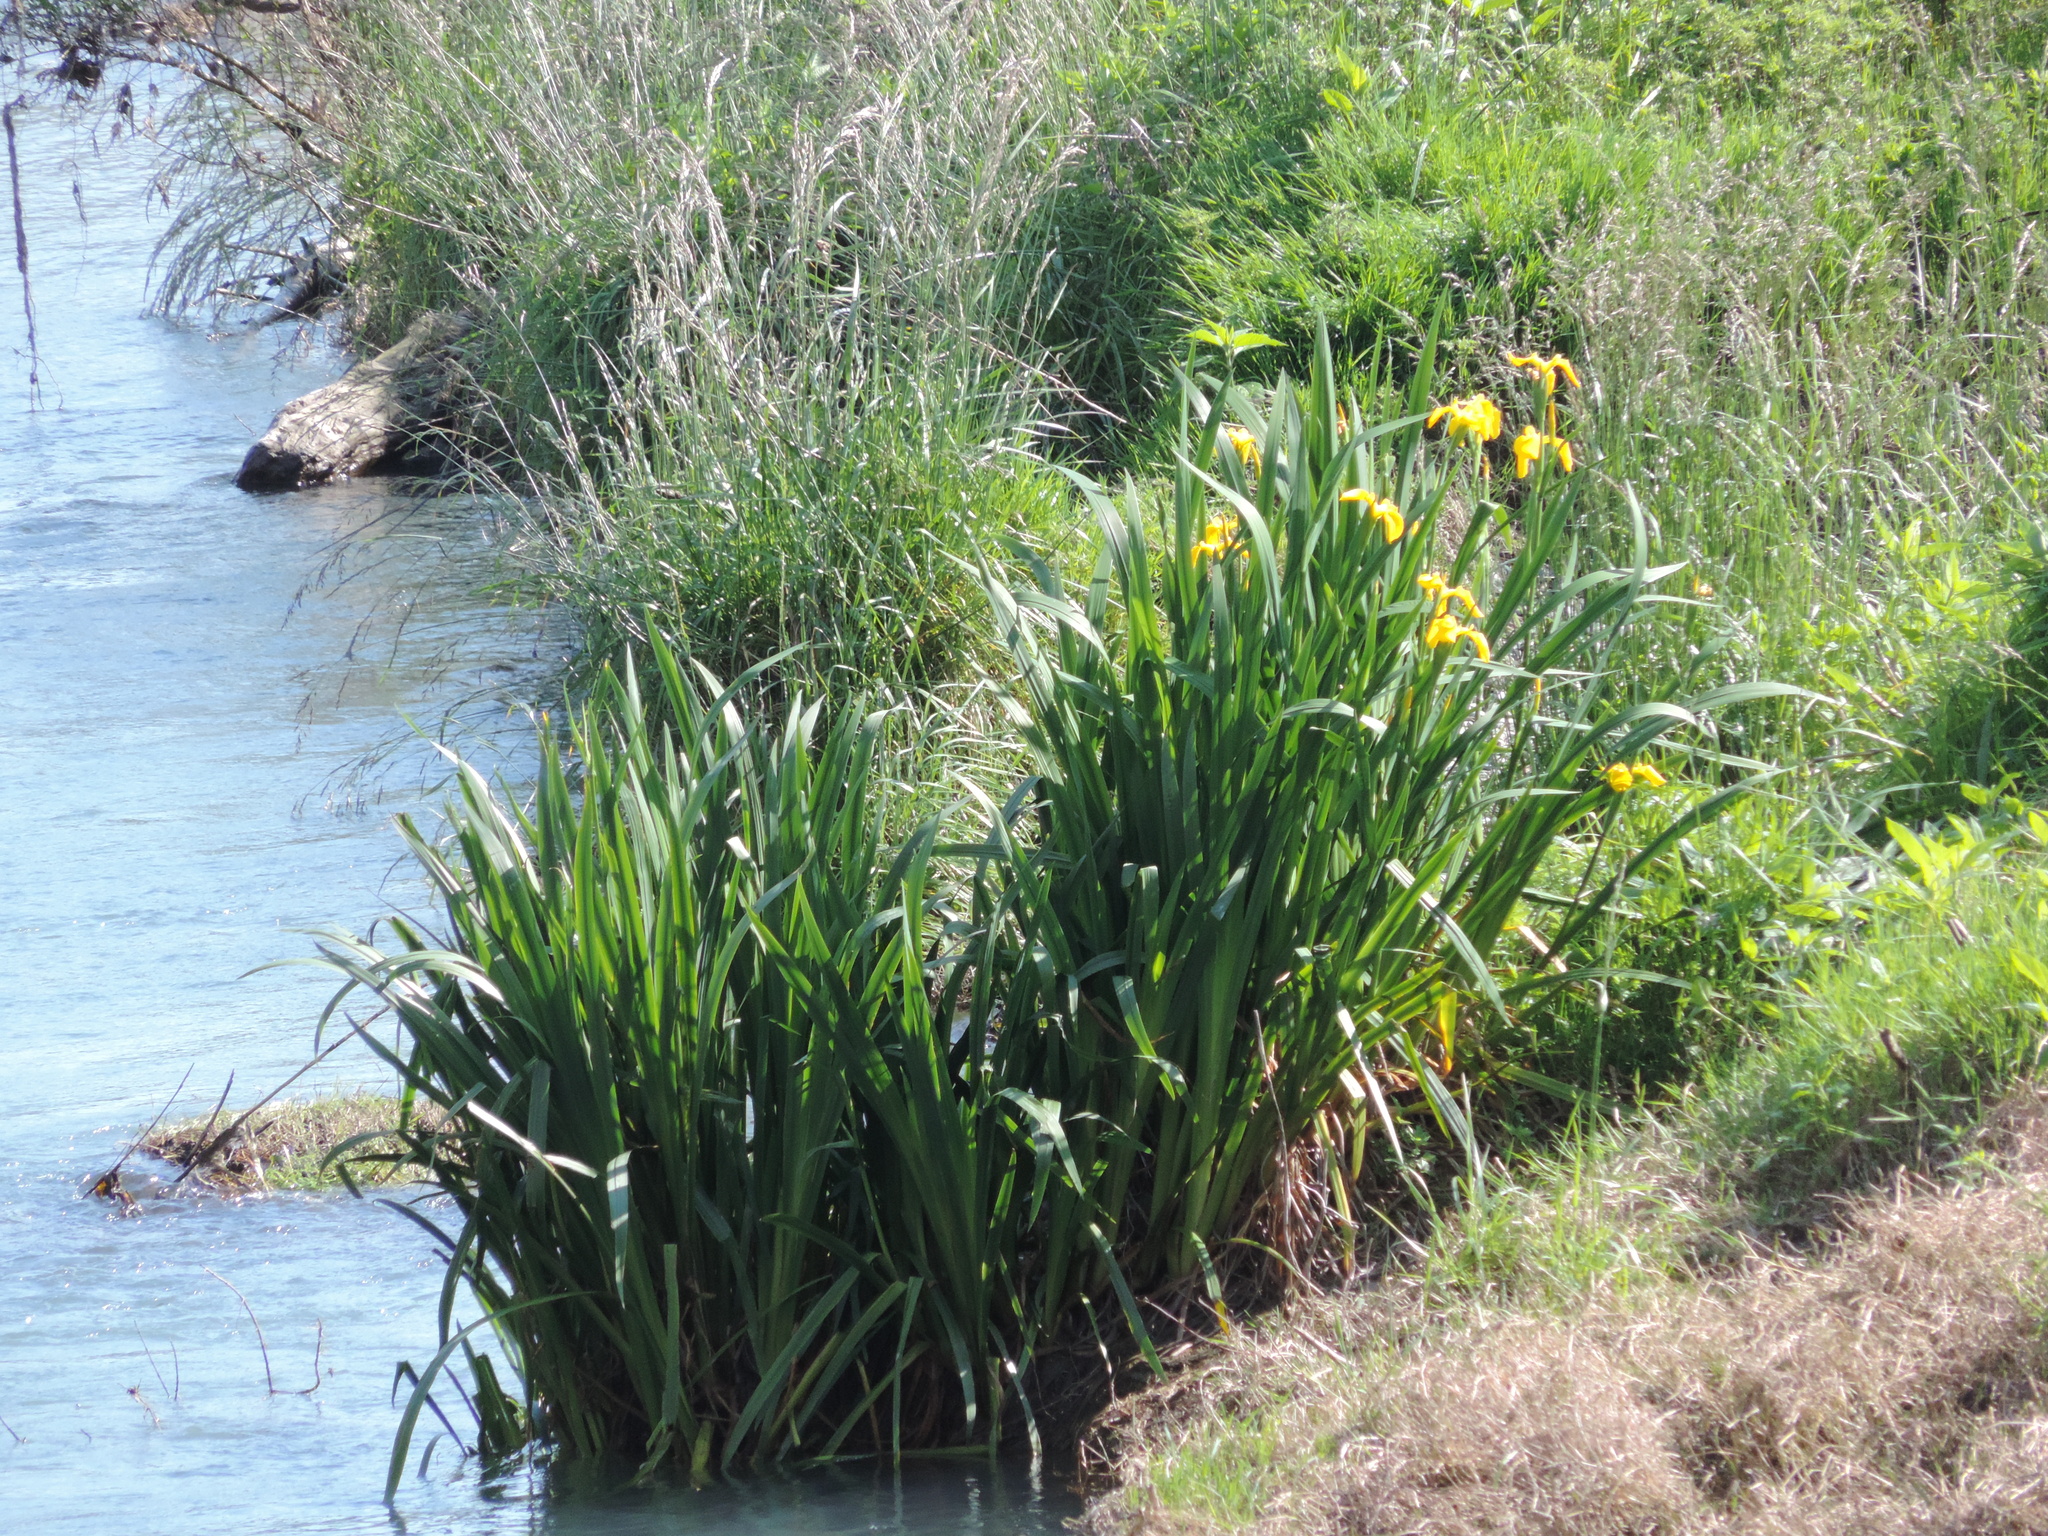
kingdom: Plantae
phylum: Tracheophyta
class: Liliopsida
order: Asparagales
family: Iridaceae
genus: Iris
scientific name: Iris pseudacorus
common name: Yellow flag
